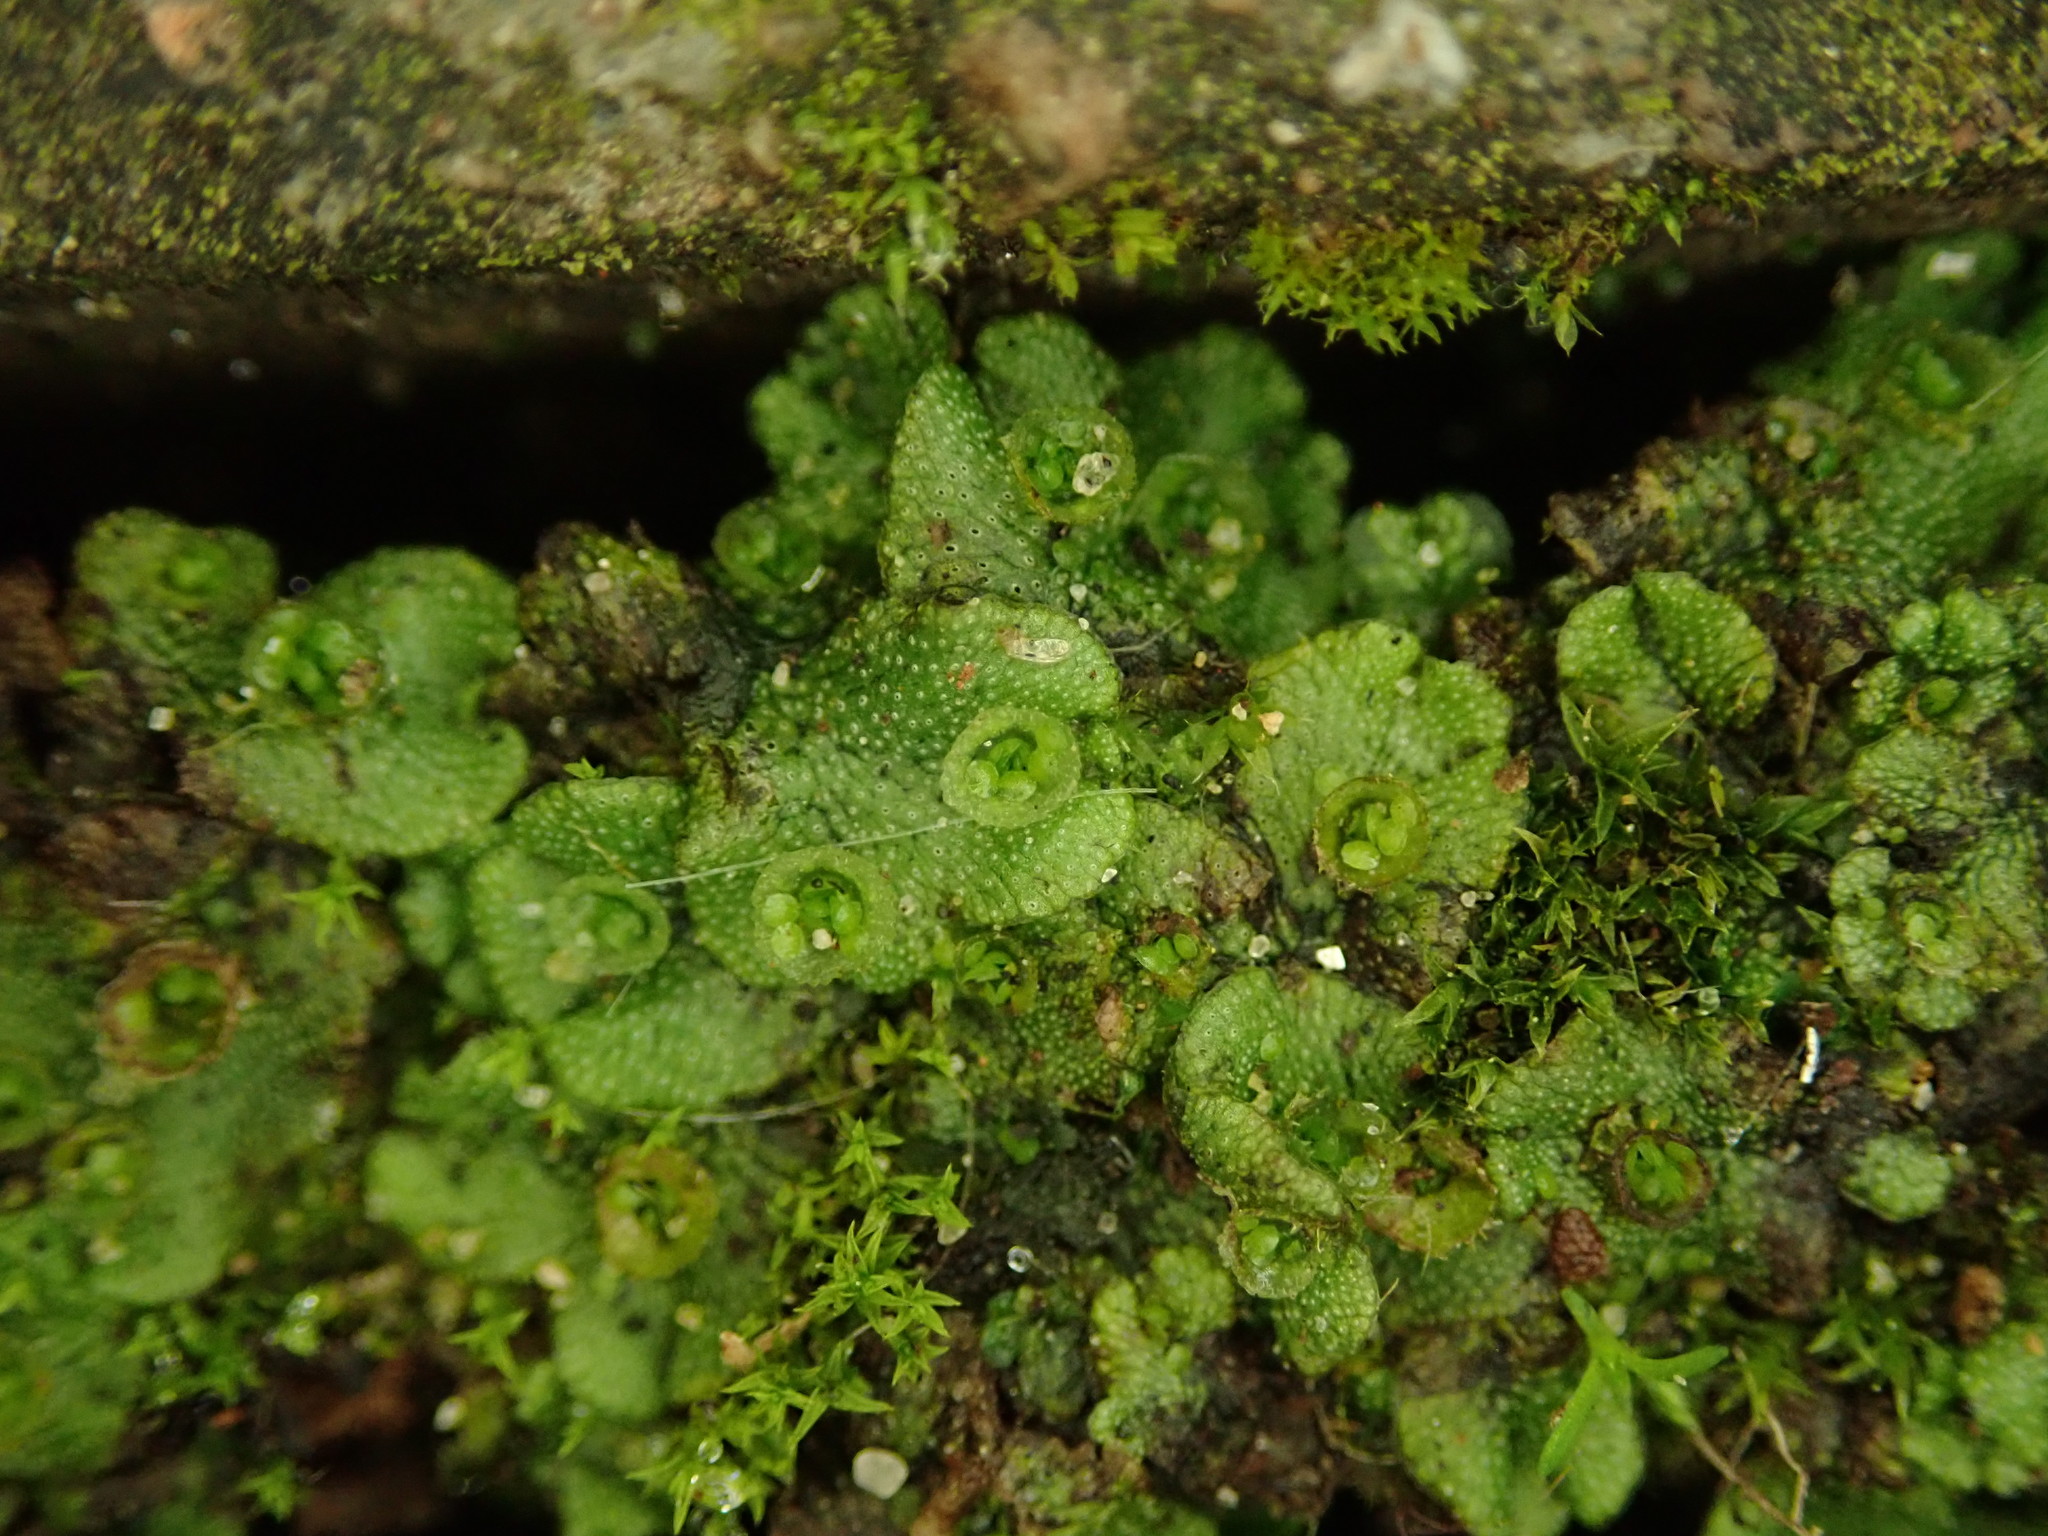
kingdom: Plantae
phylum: Marchantiophyta
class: Marchantiopsida
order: Marchantiales
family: Marchantiaceae
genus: Marchantia
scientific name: Marchantia polymorpha
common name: Common liverwort
